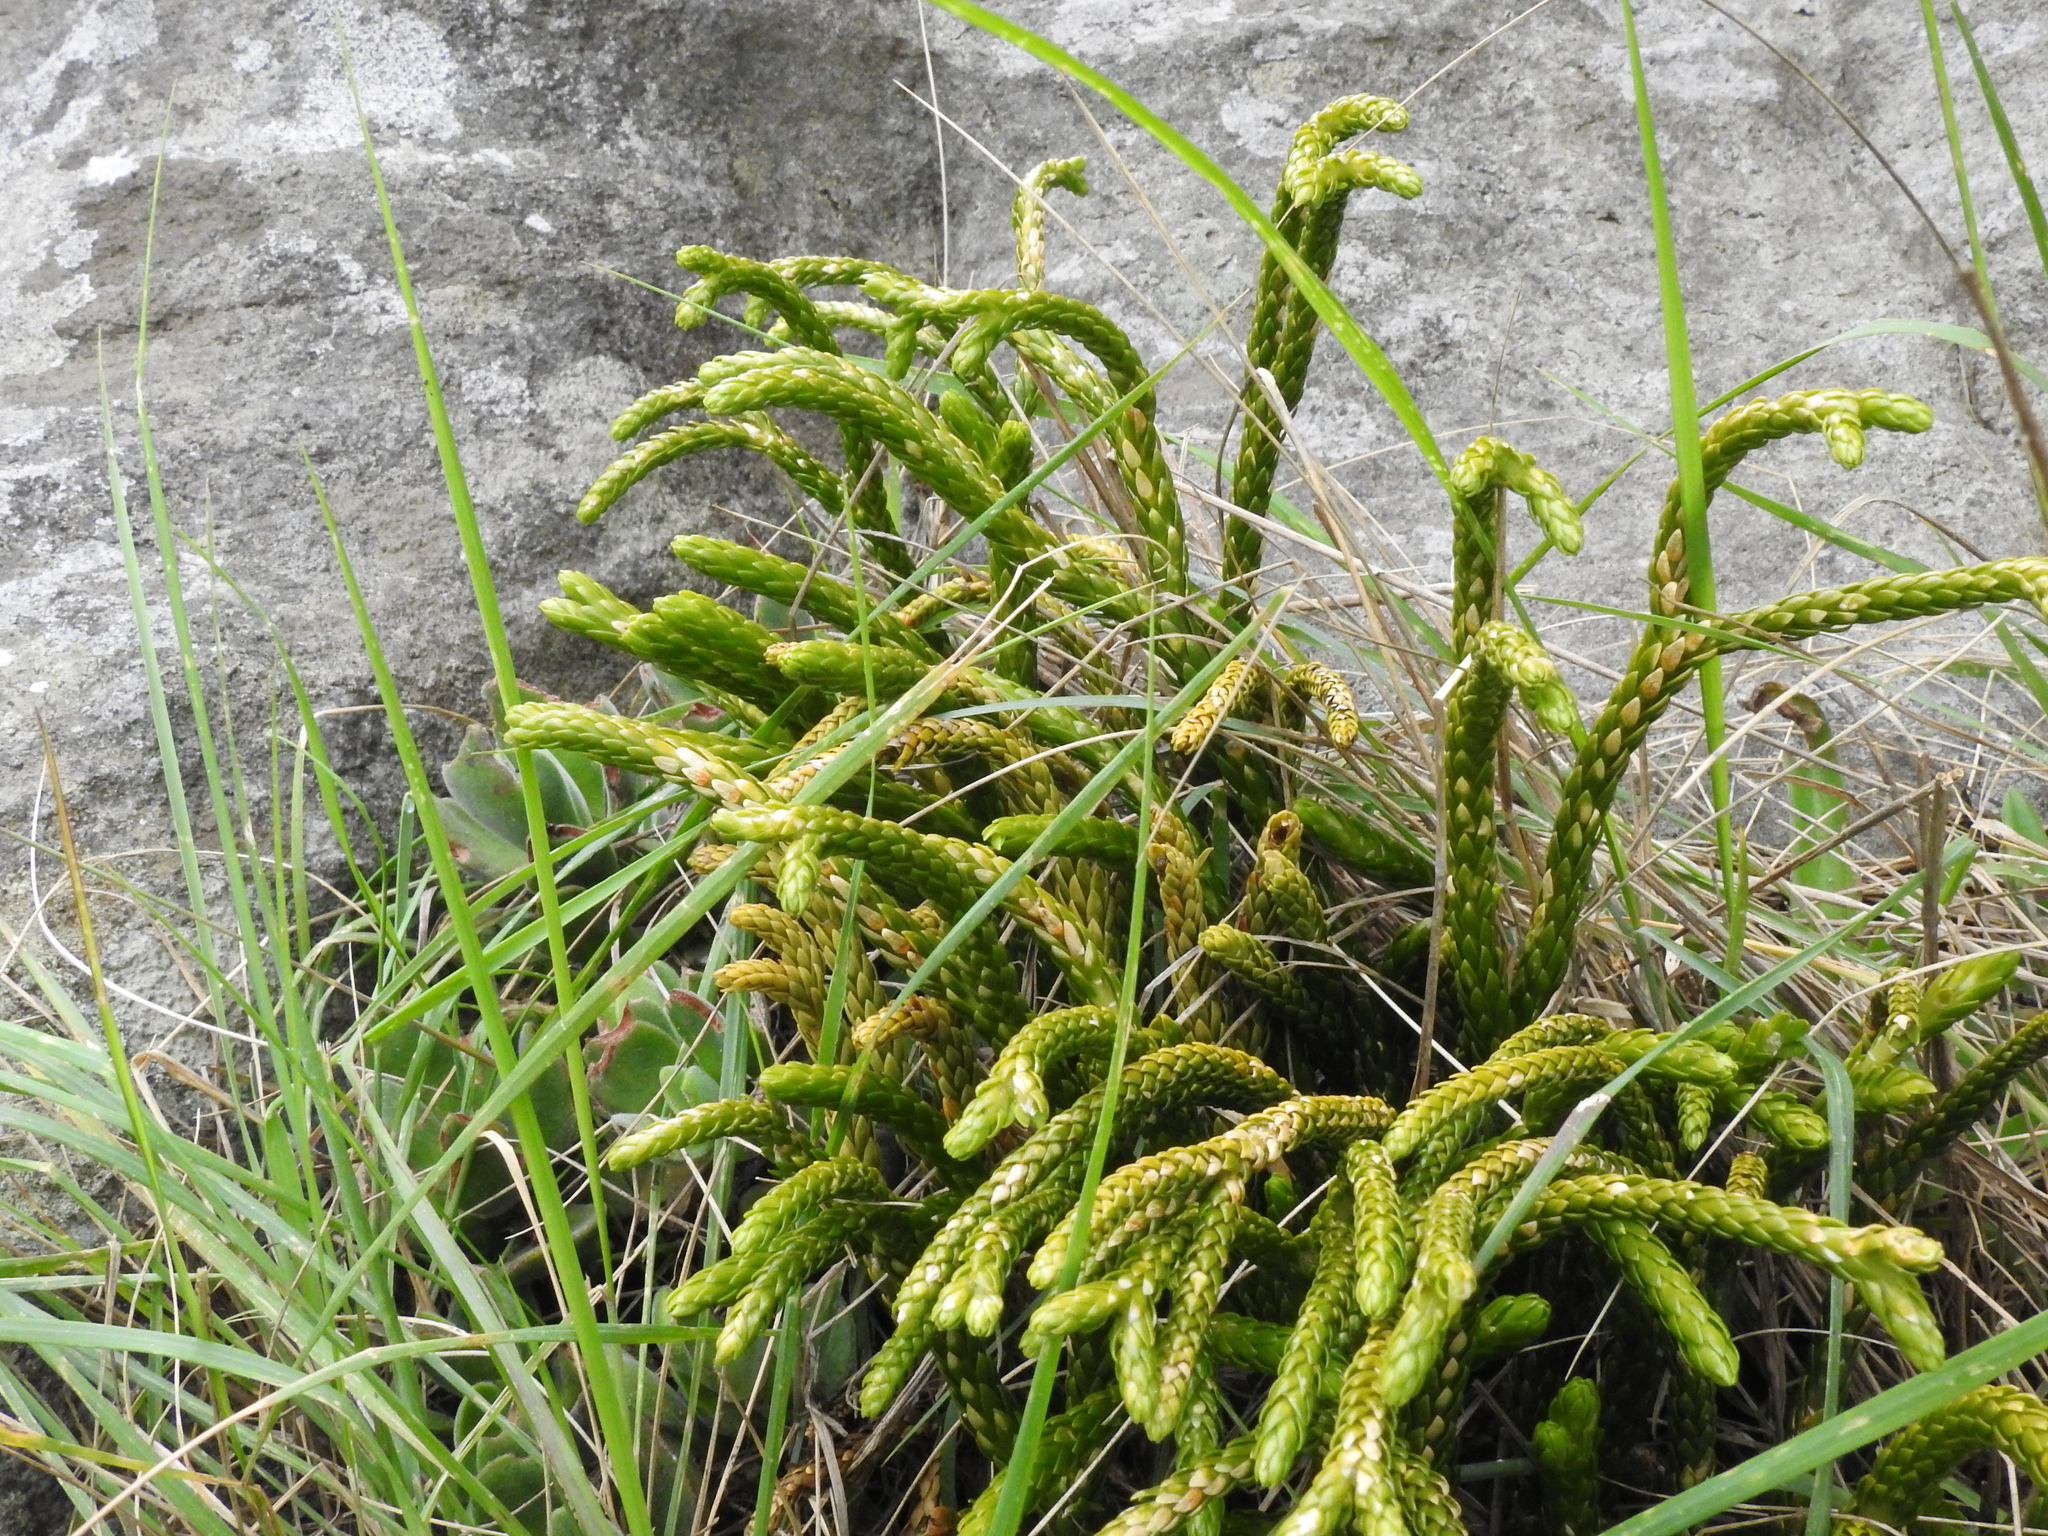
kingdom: Plantae
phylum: Tracheophyta
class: Lycopodiopsida
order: Lycopodiales
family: Lycopodiaceae
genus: Phlegmariurus
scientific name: Phlegmariurus gnidioides
